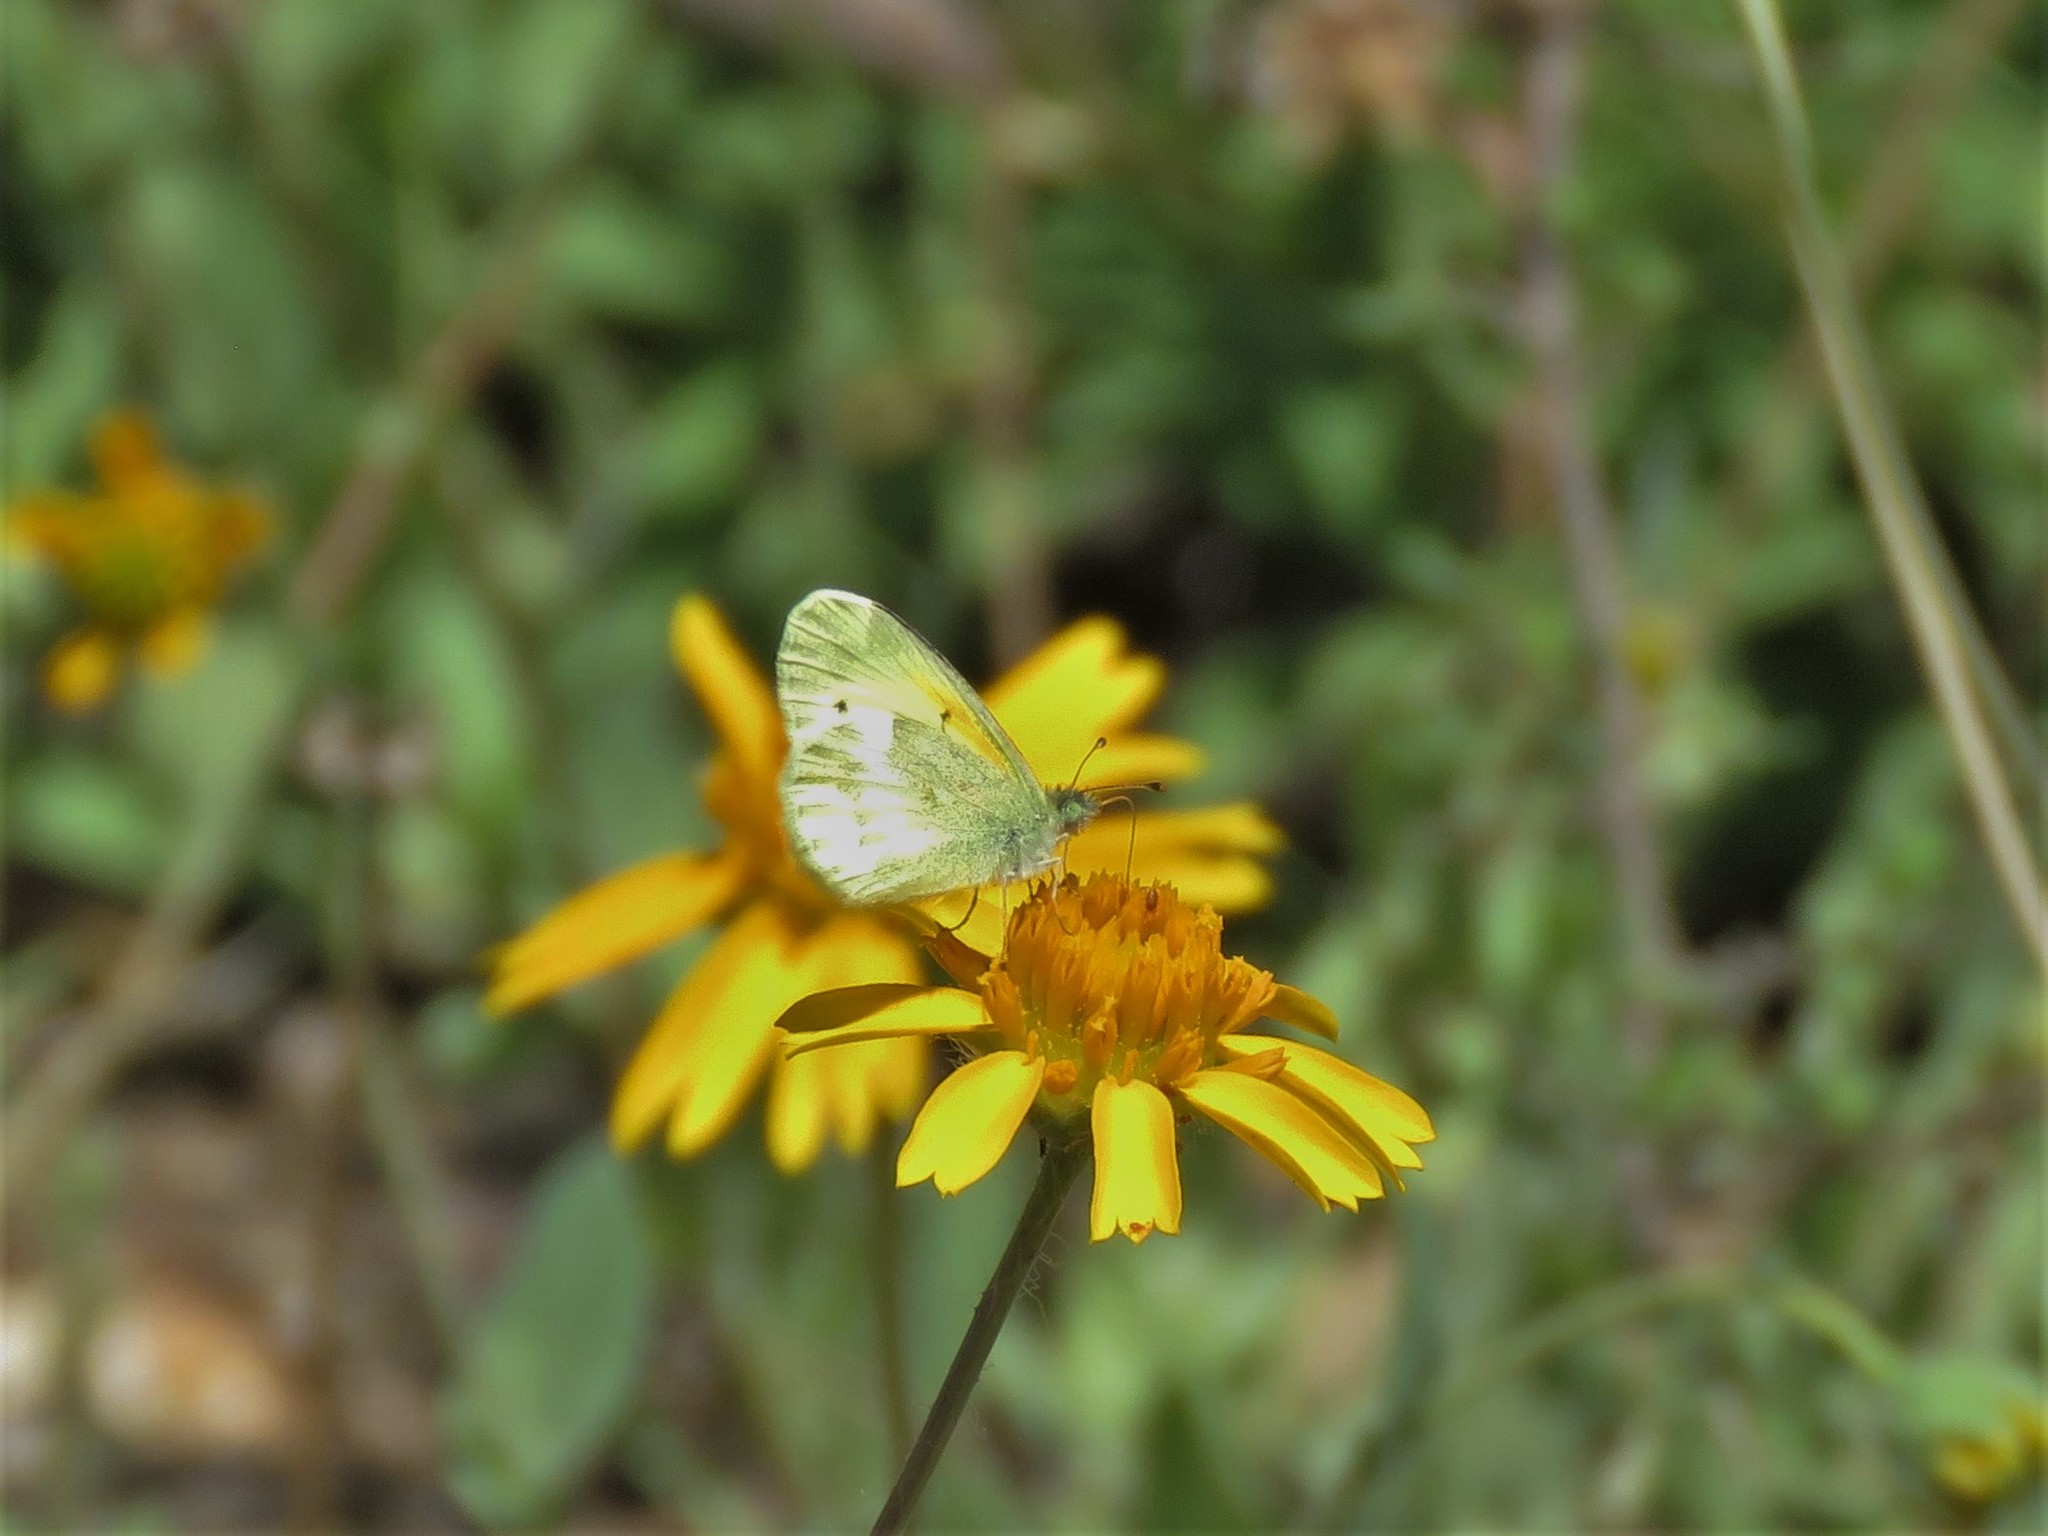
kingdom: Animalia
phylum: Arthropoda
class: Insecta
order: Lepidoptera
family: Pieridae
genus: Nathalis
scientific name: Nathalis iole
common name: Dainty sulphur
